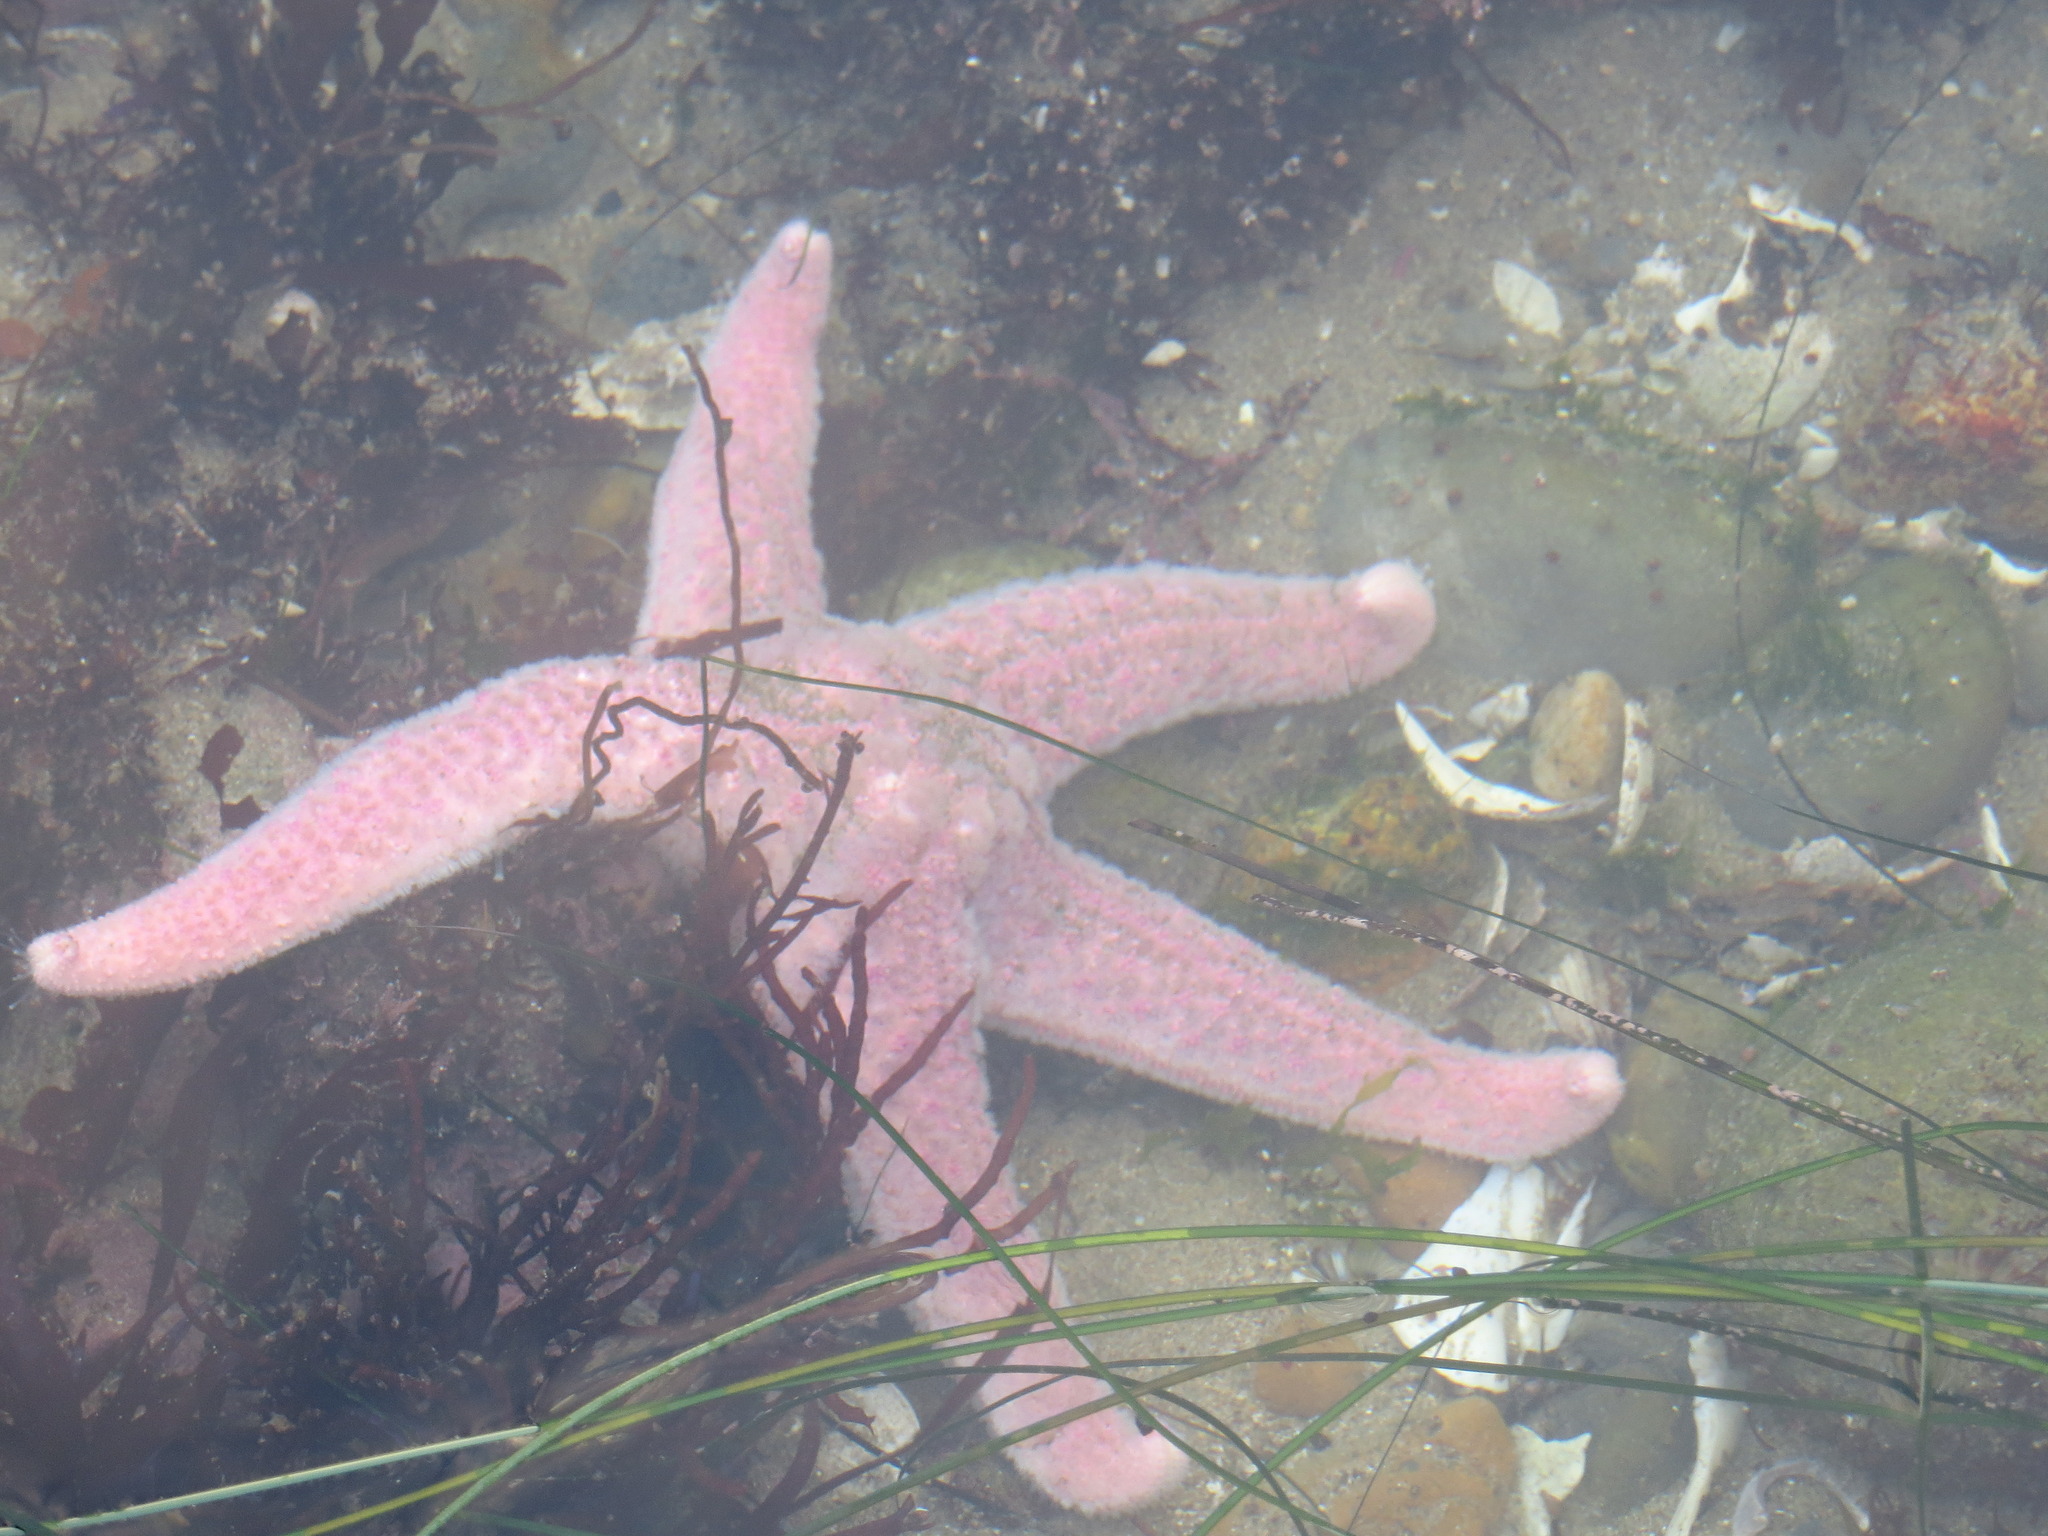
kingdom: Animalia
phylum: Echinodermata
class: Asteroidea
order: Forcipulatida
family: Asteriidae
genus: Pisaster
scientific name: Pisaster brevispinus
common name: Pink stars
